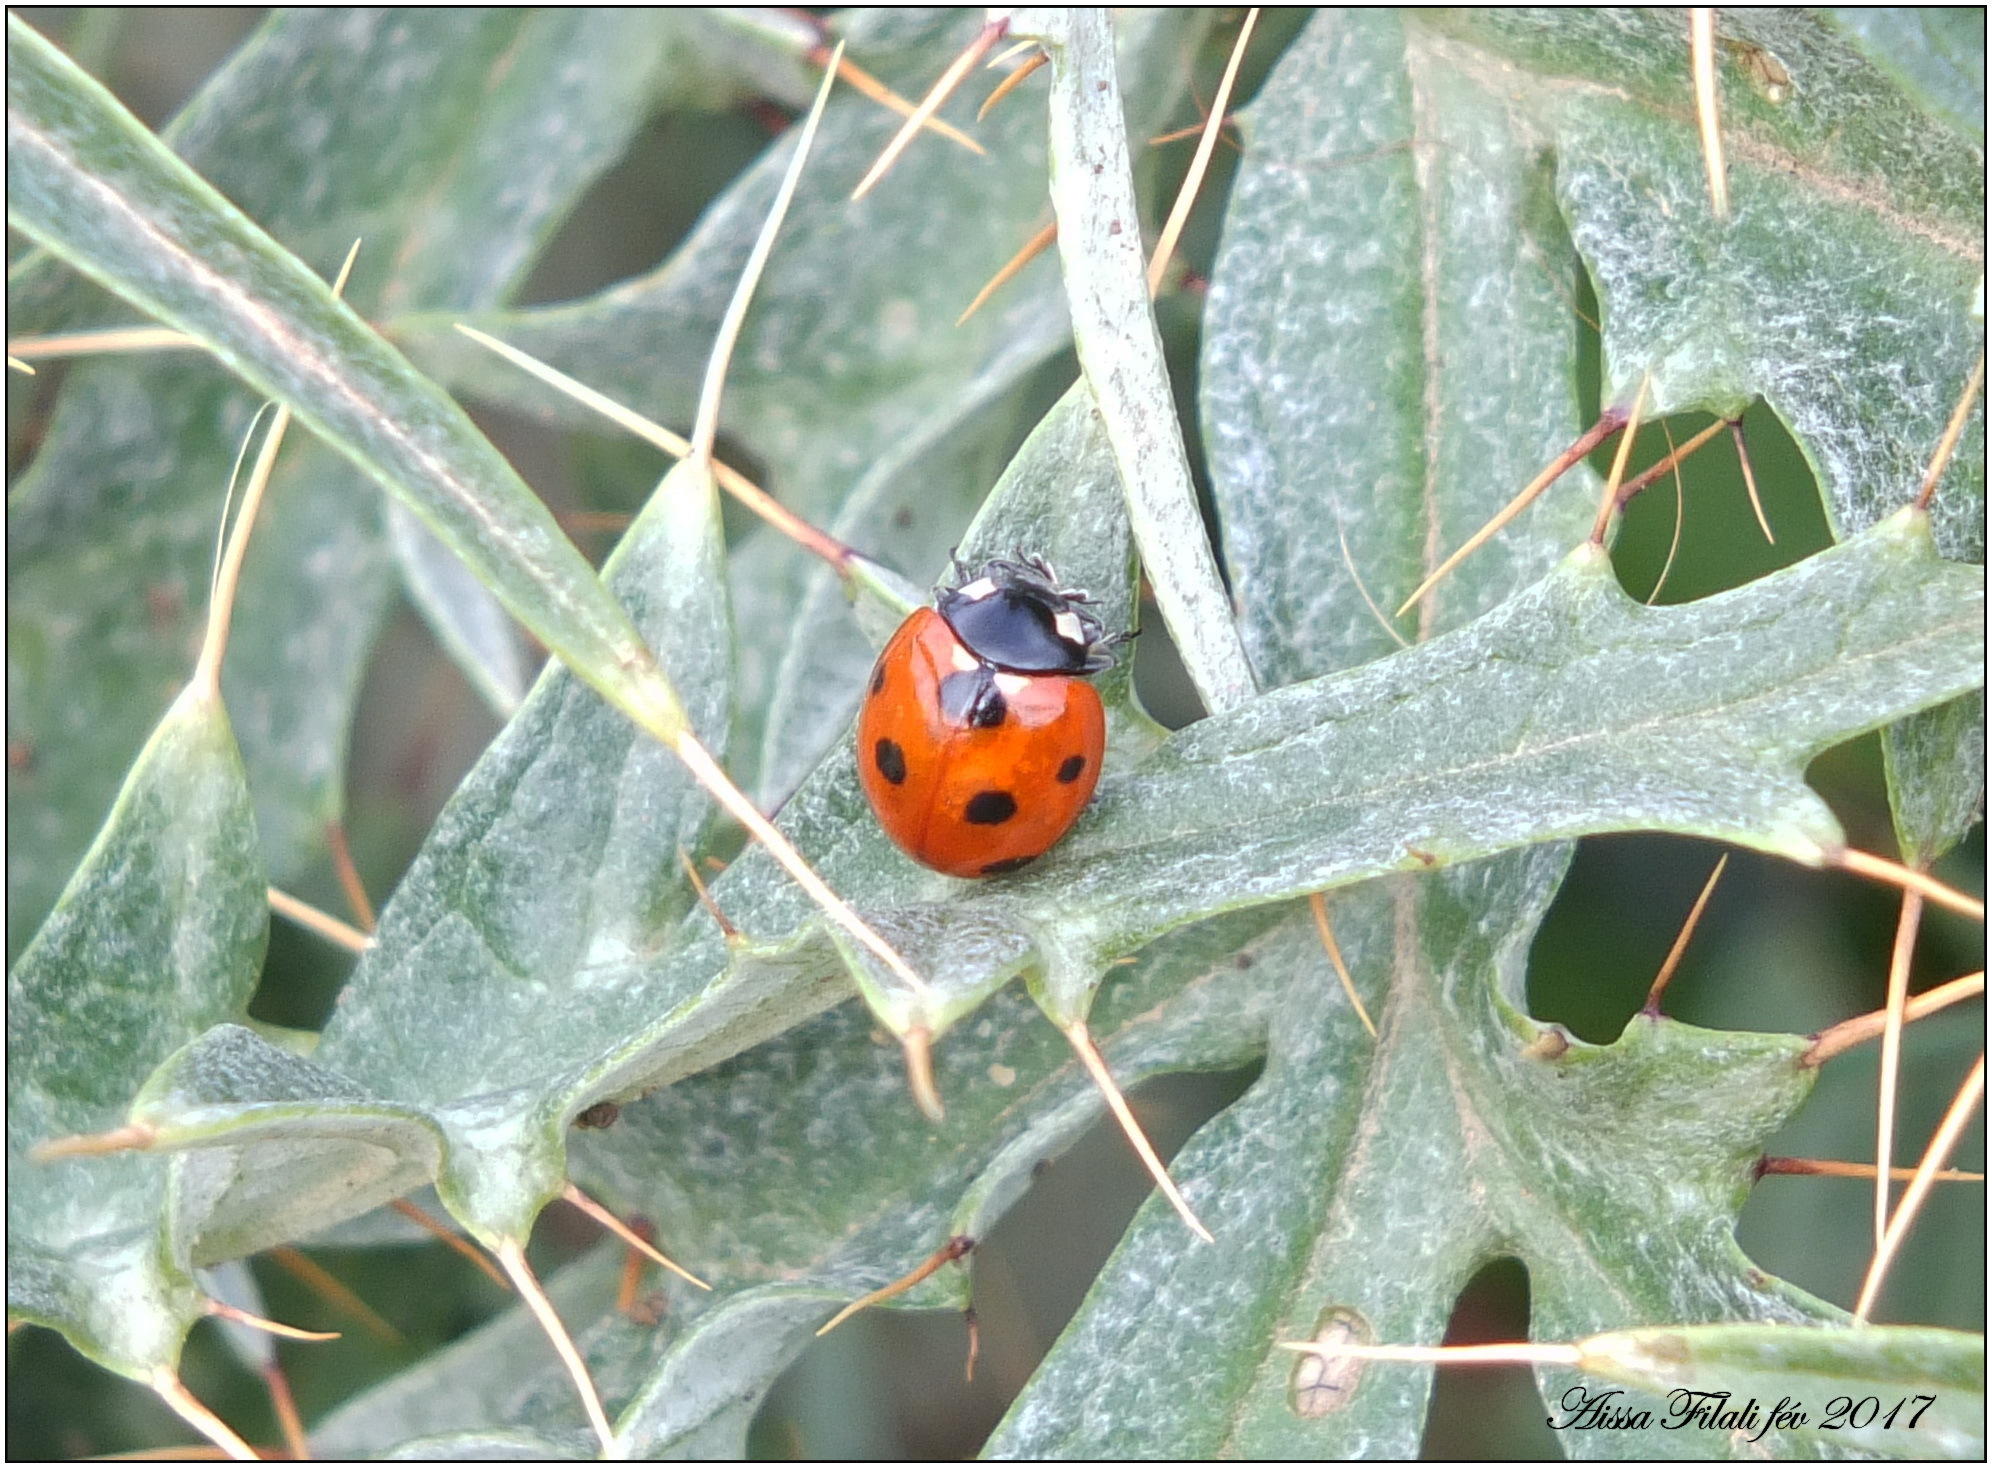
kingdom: Animalia
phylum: Arthropoda
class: Insecta
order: Coleoptera
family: Coccinellidae
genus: Coccinella
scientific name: Coccinella algerica
